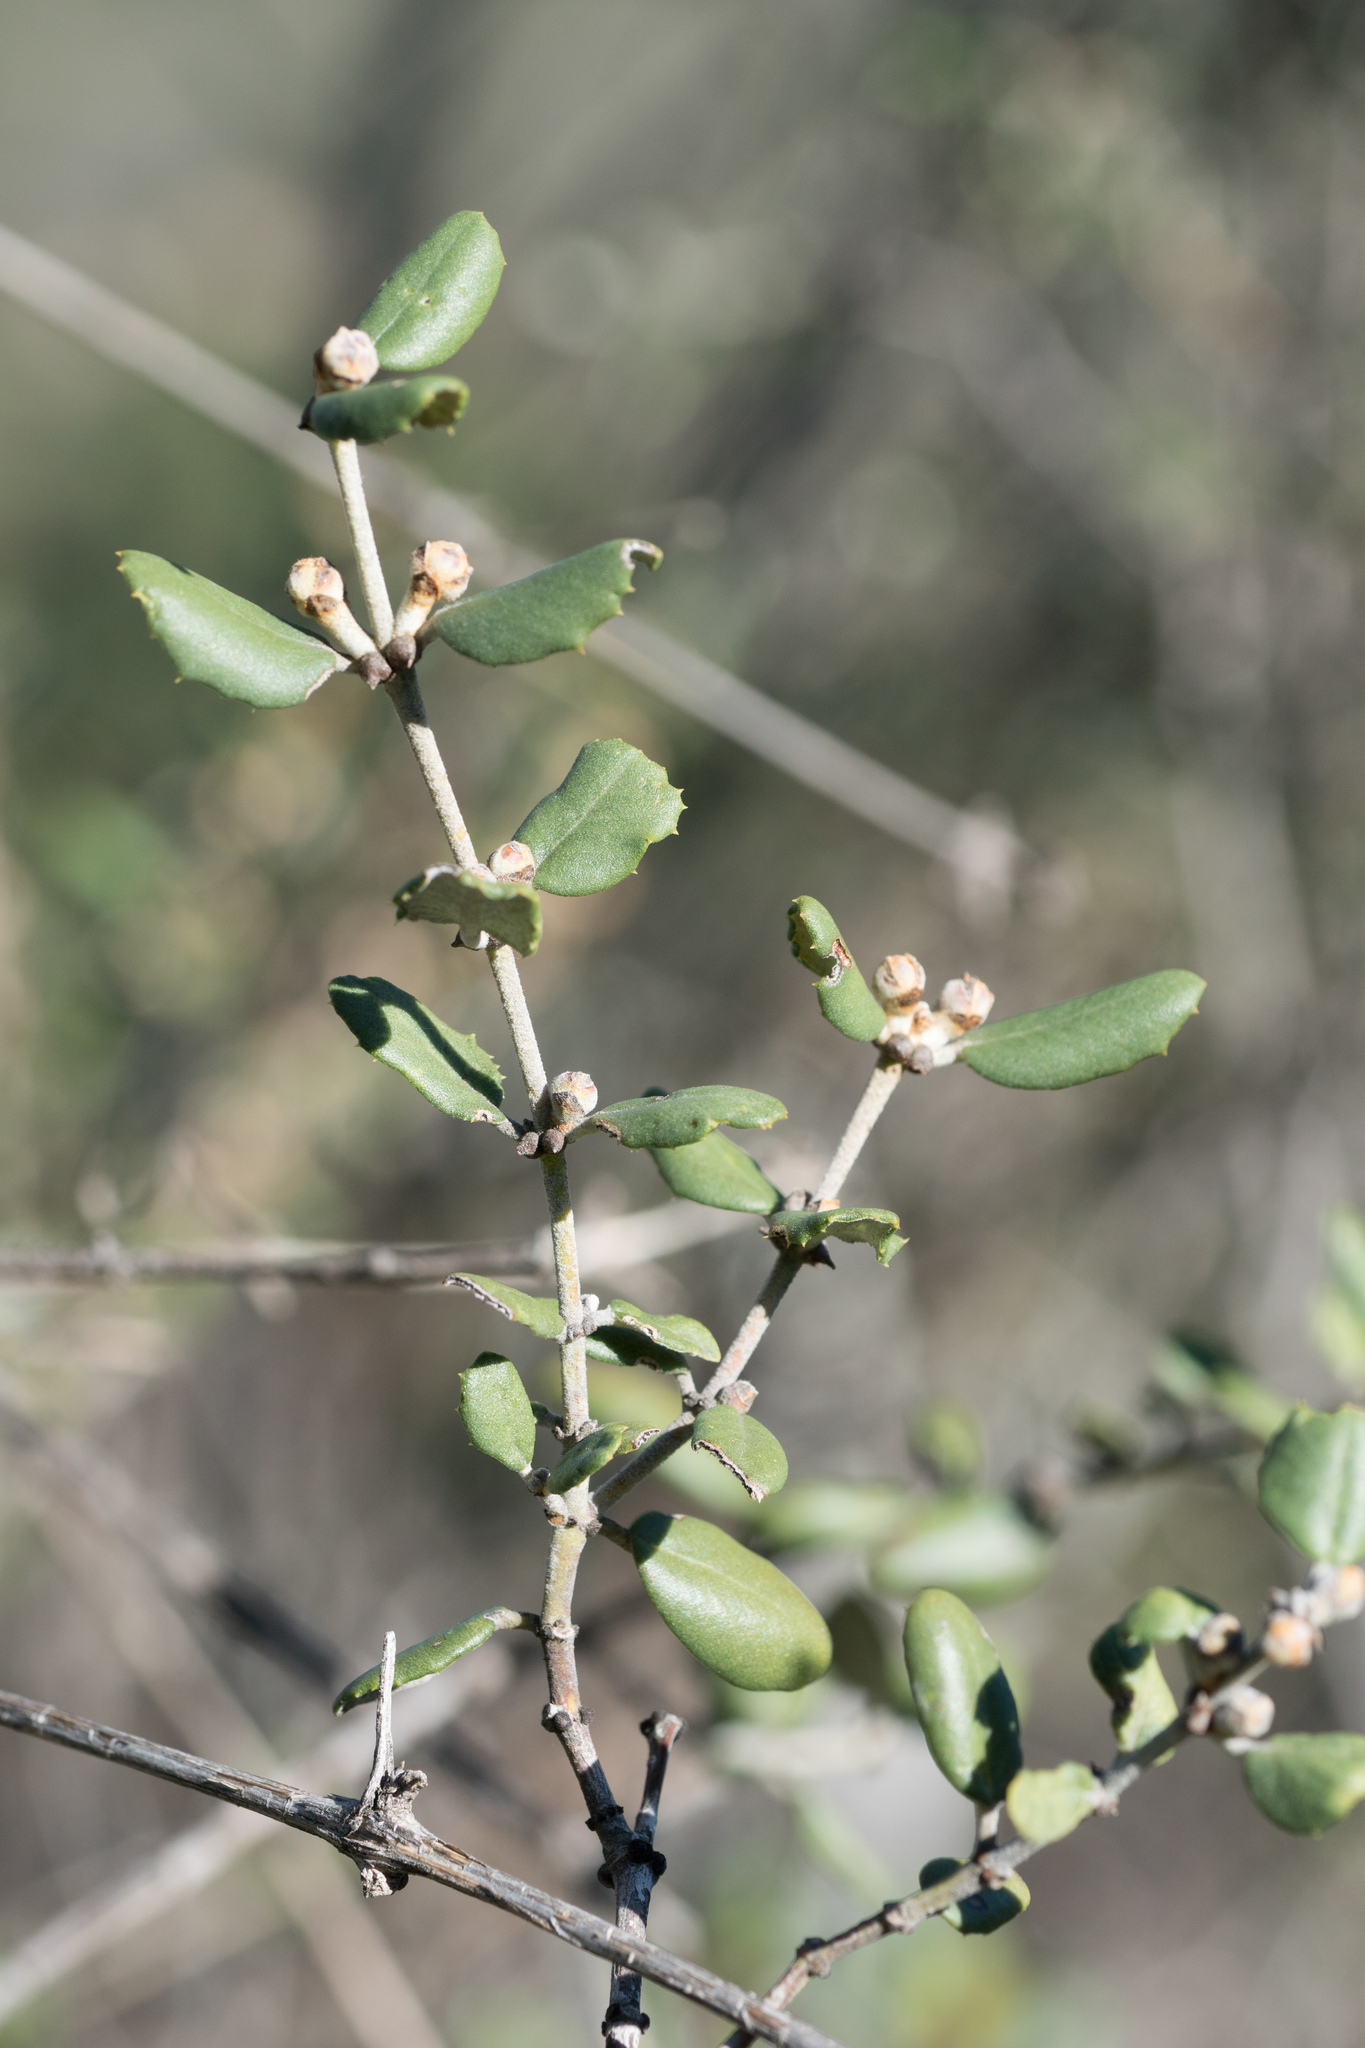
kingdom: Plantae
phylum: Tracheophyta
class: Magnoliopsida
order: Rosales
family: Rhamnaceae
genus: Ceanothus
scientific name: Ceanothus crassifolius
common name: Hoaryleaf ceanothus
